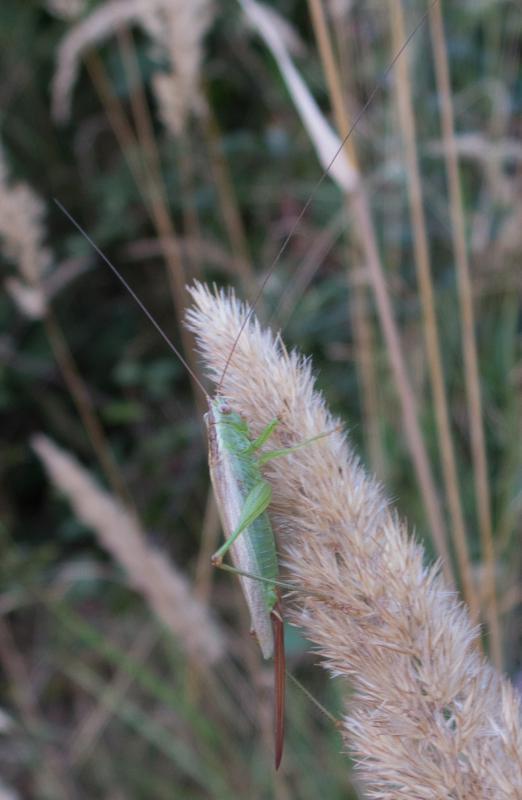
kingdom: Animalia
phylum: Arthropoda
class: Insecta
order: Orthoptera
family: Tettigoniidae
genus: Conocephalus
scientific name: Conocephalus fuscus
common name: Long-winged conehead
